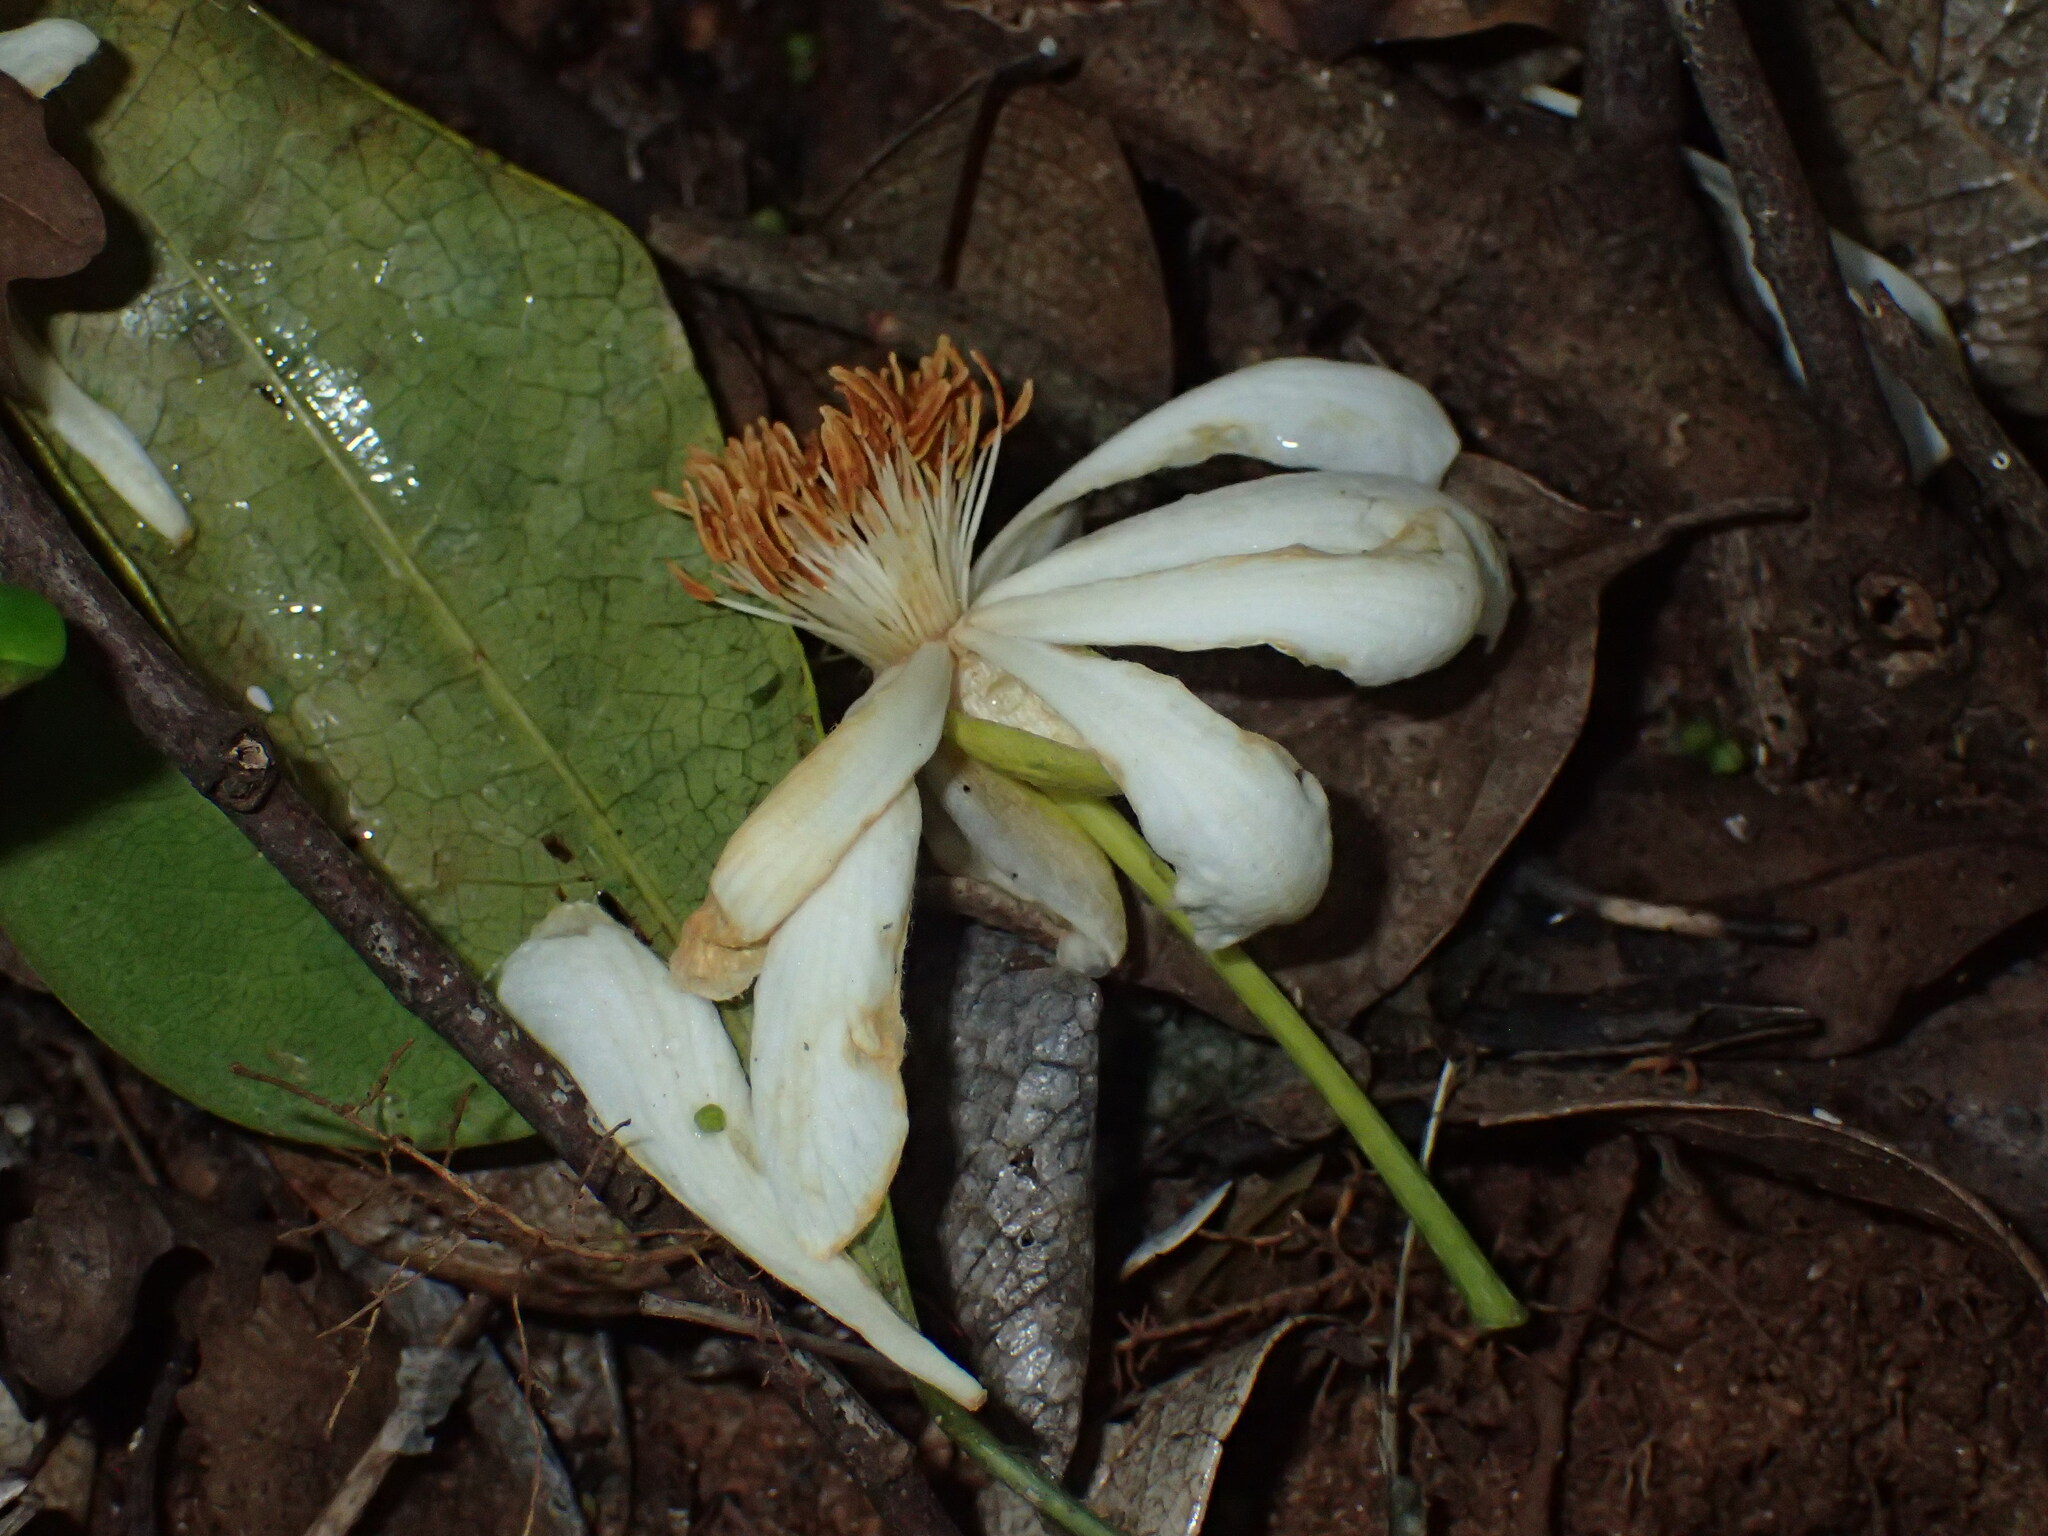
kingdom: Plantae
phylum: Tracheophyta
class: Magnoliopsida
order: Malpighiales
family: Achariaceae
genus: Xylotheca
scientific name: Xylotheca kraussiana
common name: African dog rose
